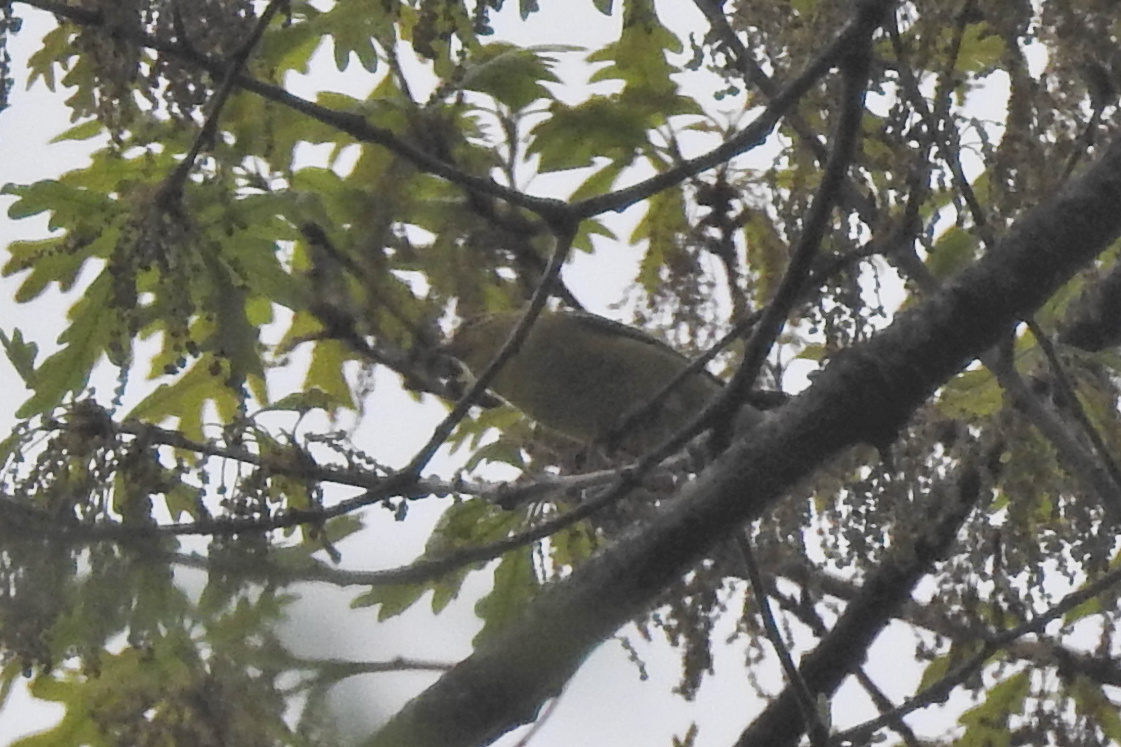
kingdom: Animalia
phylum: Chordata
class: Aves
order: Passeriformes
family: Cardinalidae
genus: Piranga
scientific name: Piranga olivacea
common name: Scarlet tanager
